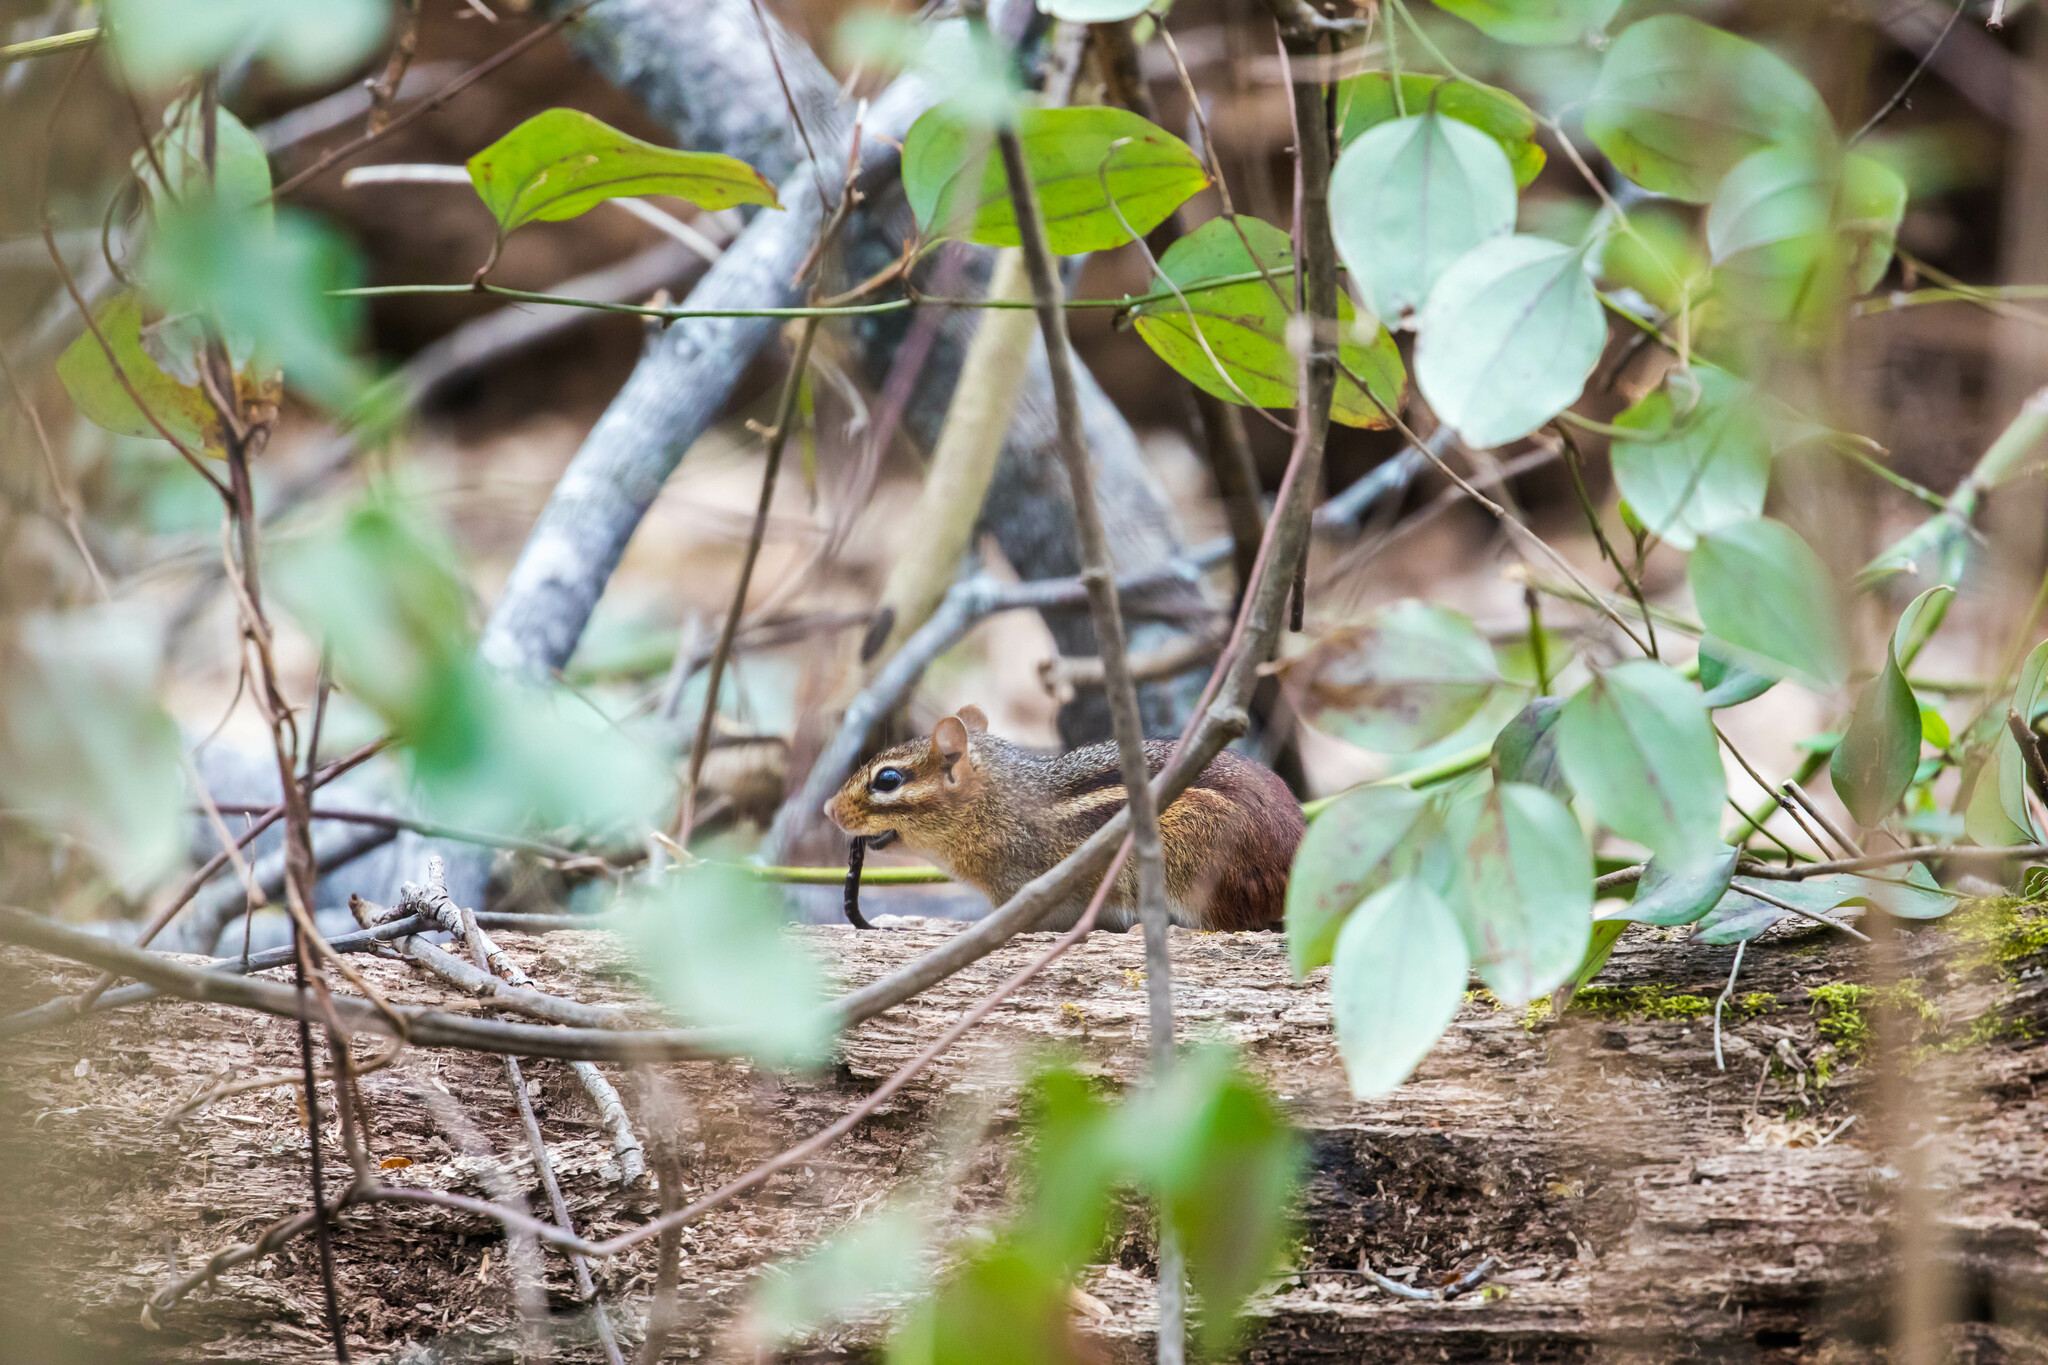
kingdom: Animalia
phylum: Chordata
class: Mammalia
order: Rodentia
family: Sciuridae
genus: Tamias
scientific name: Tamias striatus
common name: Eastern chipmunk
